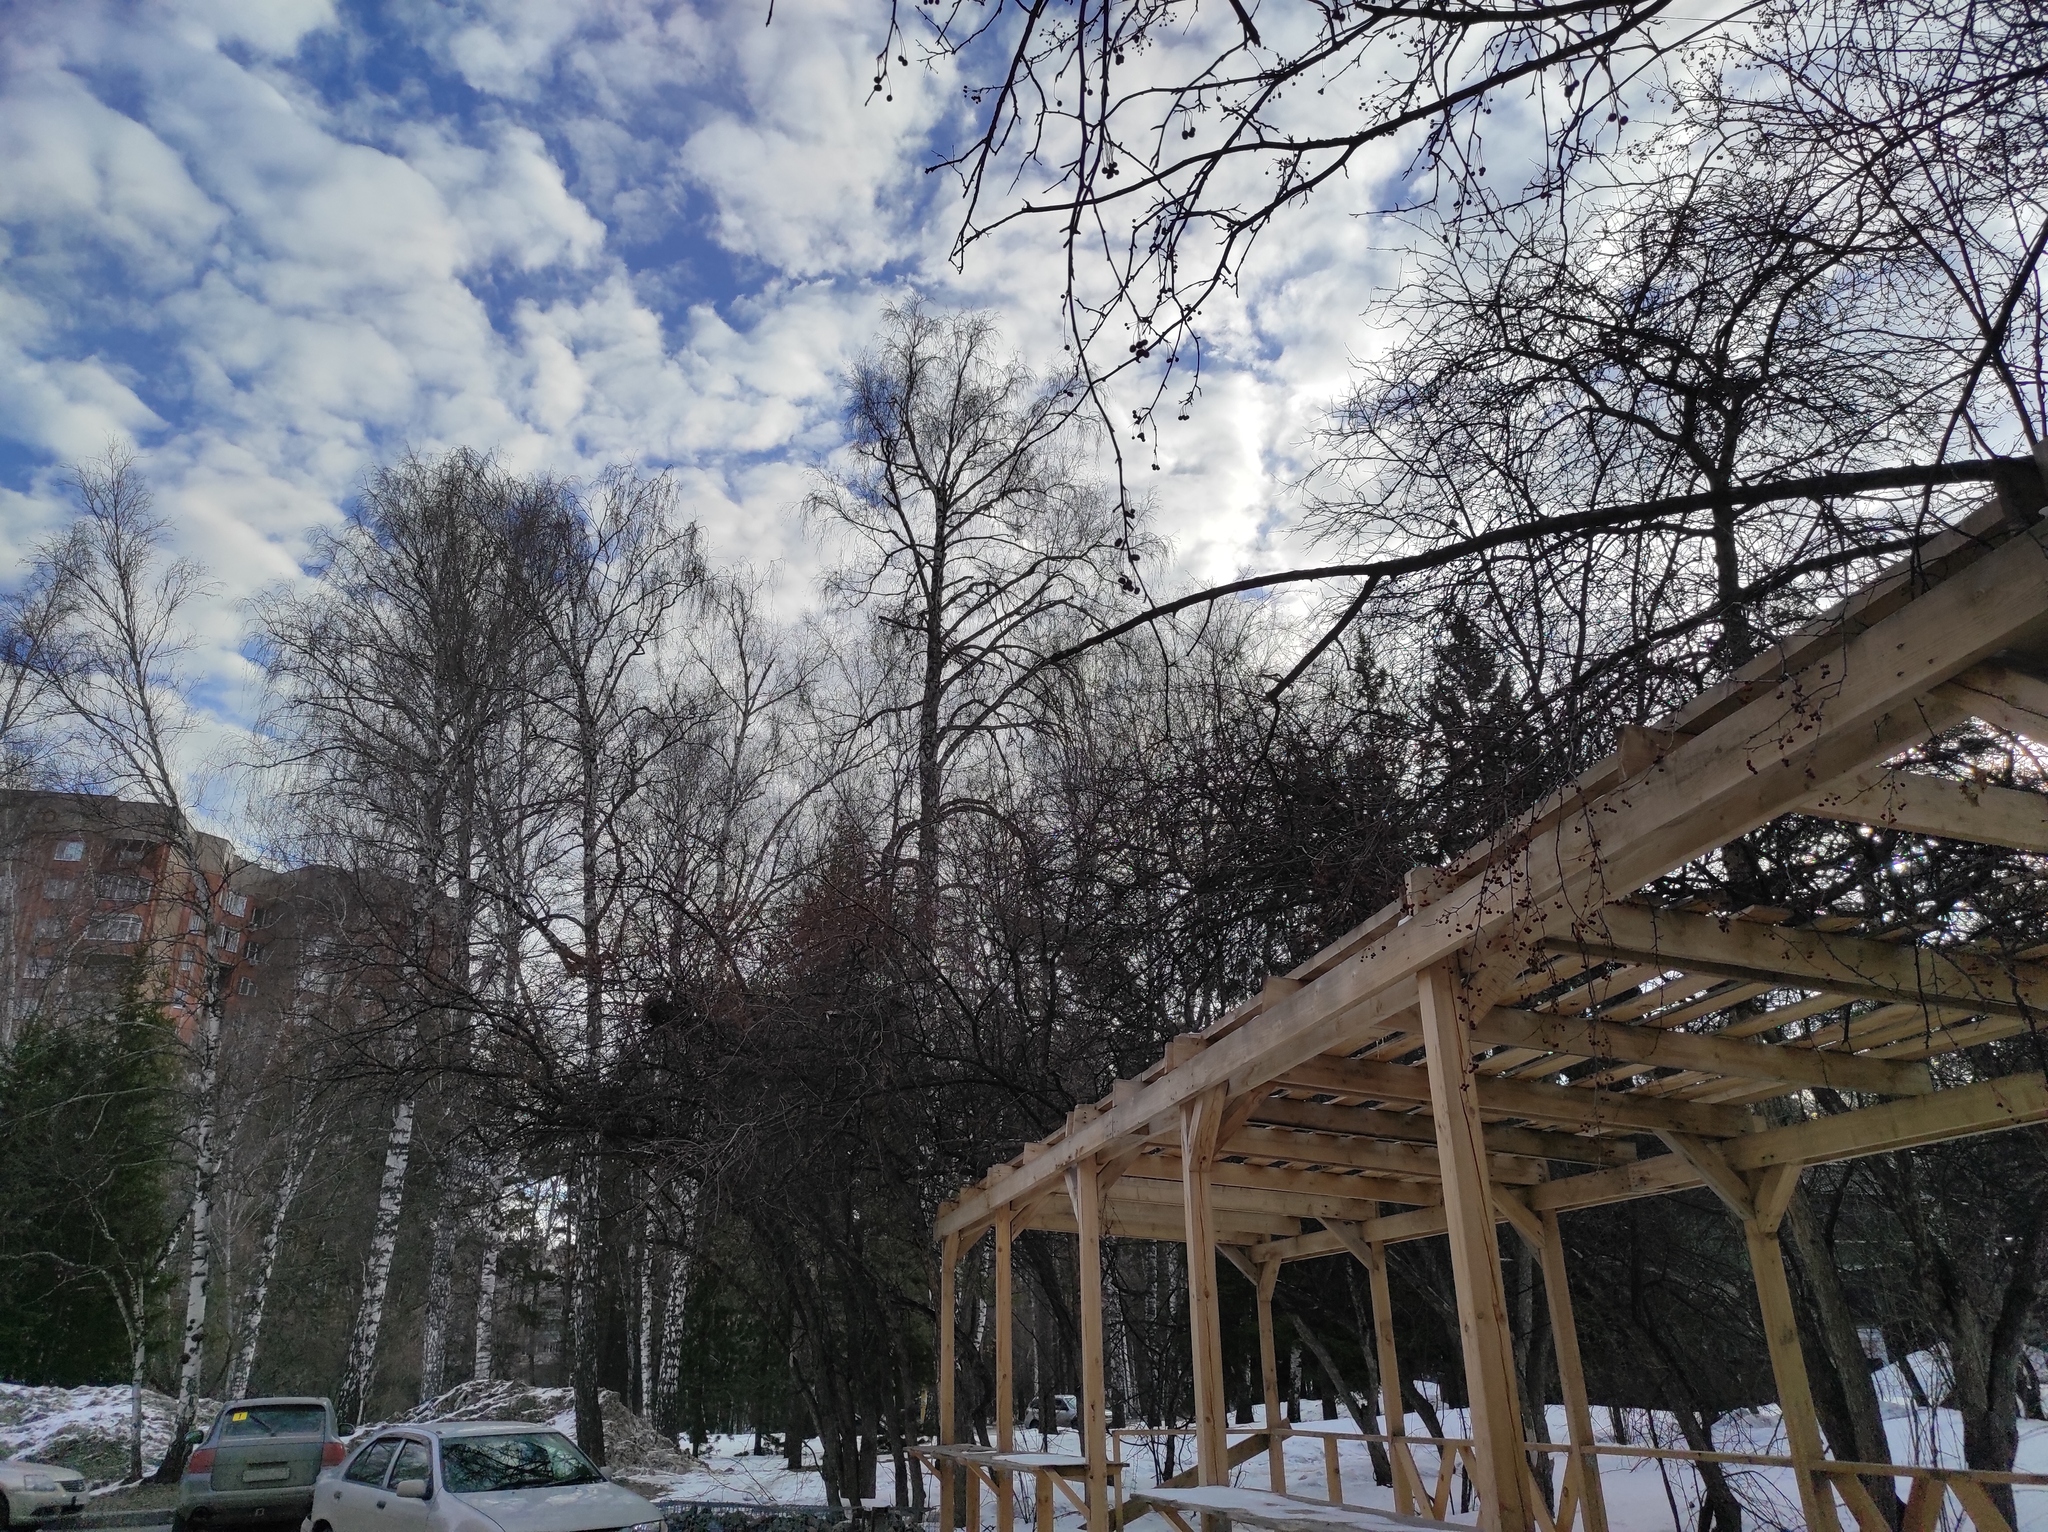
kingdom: Animalia
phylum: Chordata
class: Aves
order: Passeriformes
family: Fringillidae
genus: Pyrrhula
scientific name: Pyrrhula pyrrhula
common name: Eurasian bullfinch
